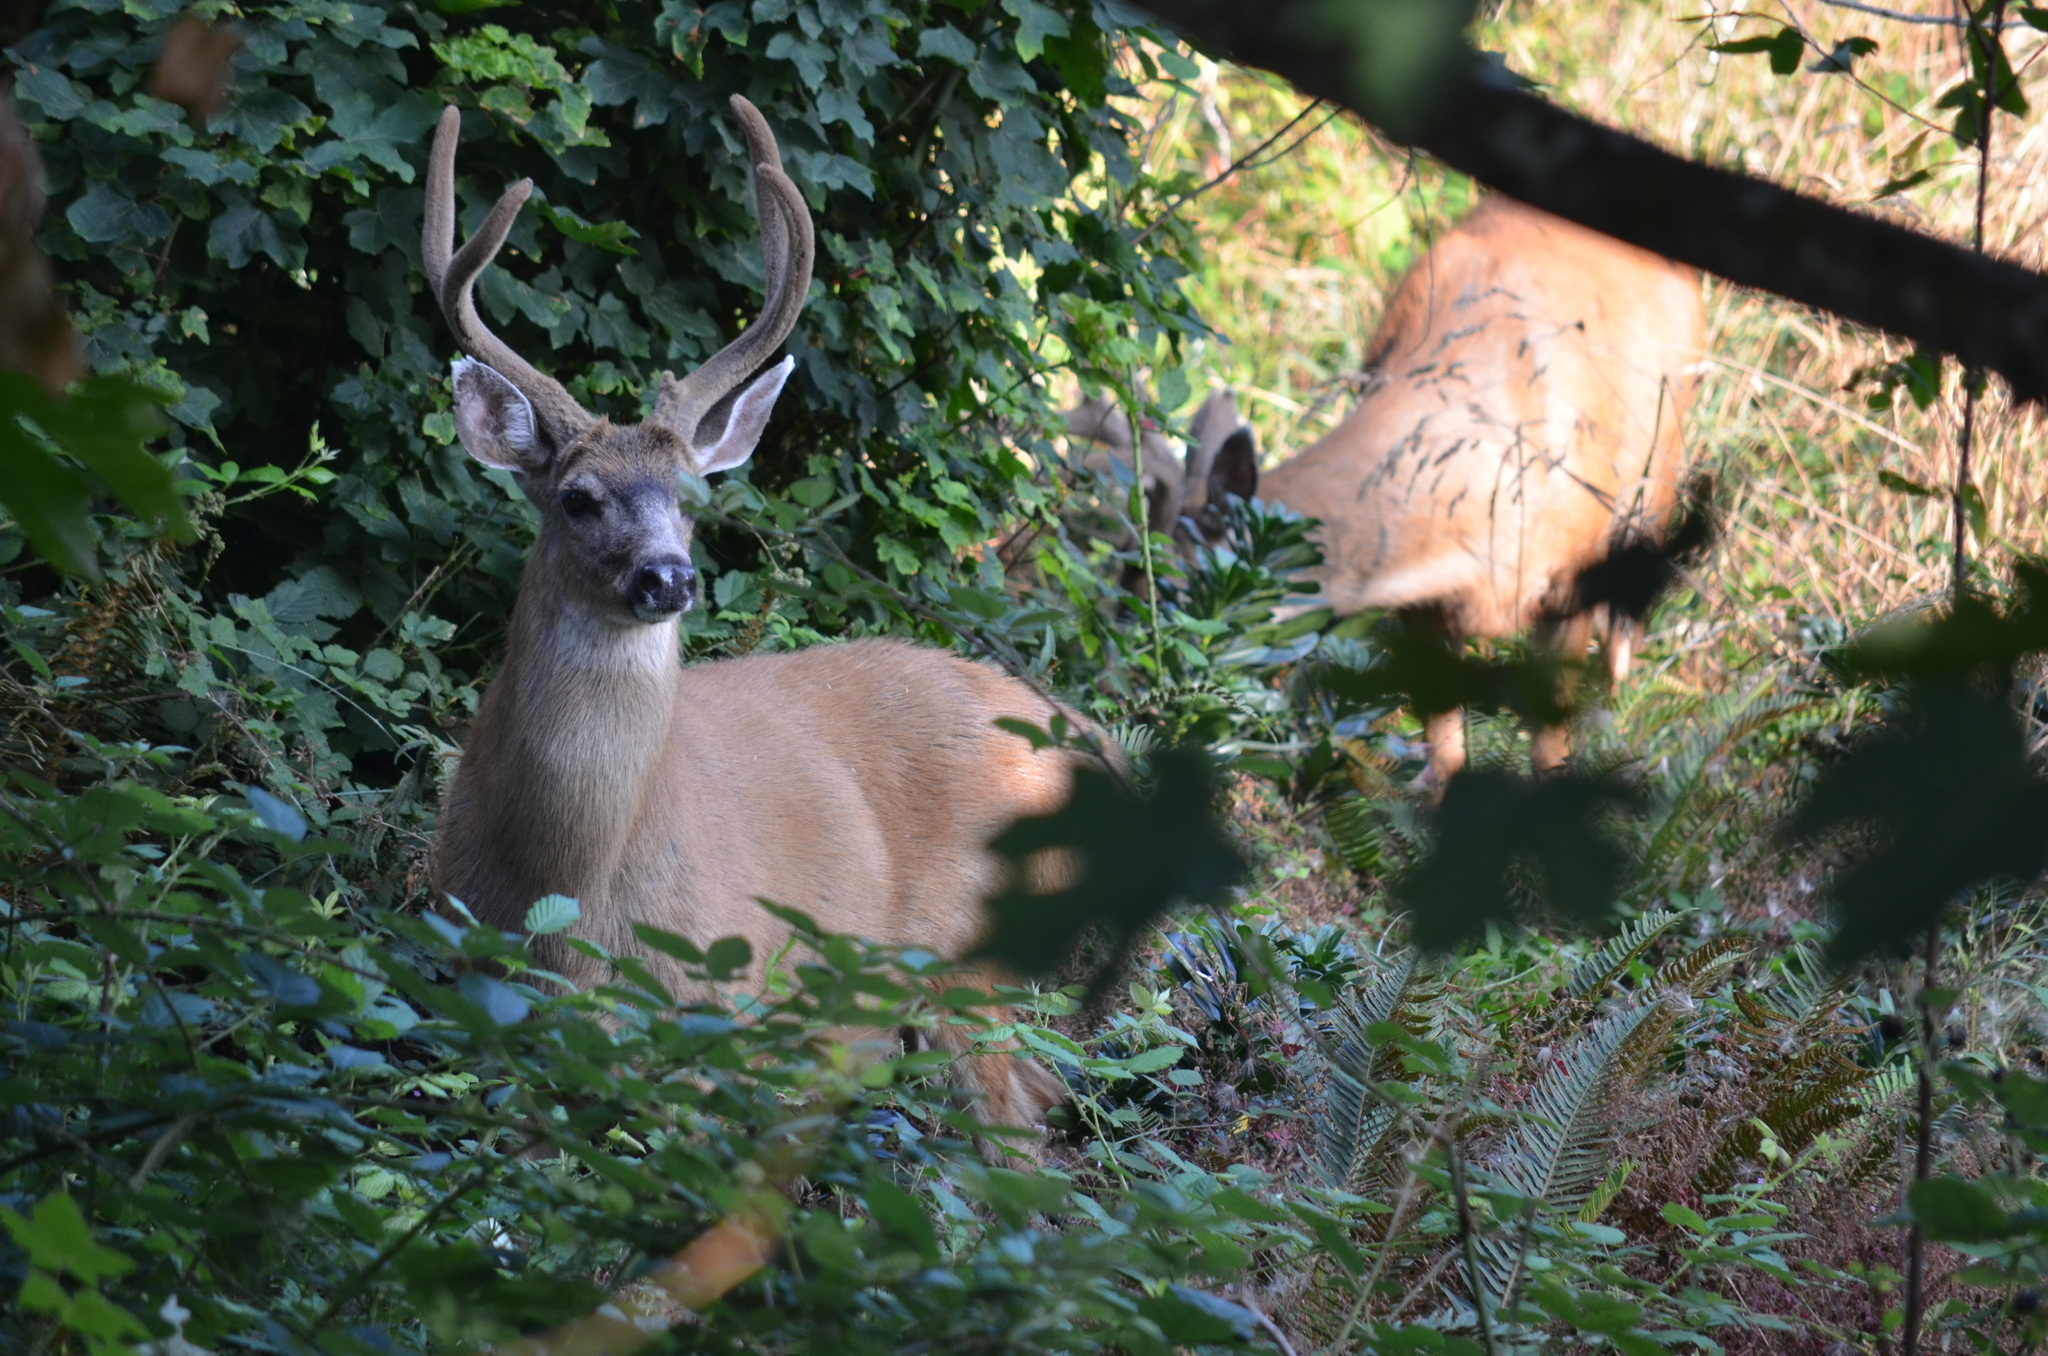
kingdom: Animalia
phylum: Chordata
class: Mammalia
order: Artiodactyla
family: Cervidae
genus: Odocoileus
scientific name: Odocoileus hemionus
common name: Mule deer
